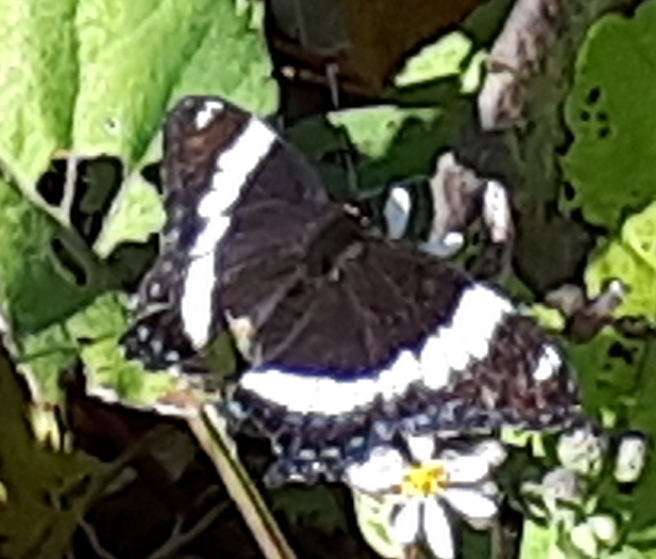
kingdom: Animalia
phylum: Arthropoda
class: Insecta
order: Lepidoptera
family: Nymphalidae
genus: Limenitis
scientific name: Limenitis arthemis
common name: Red-spotted admiral
